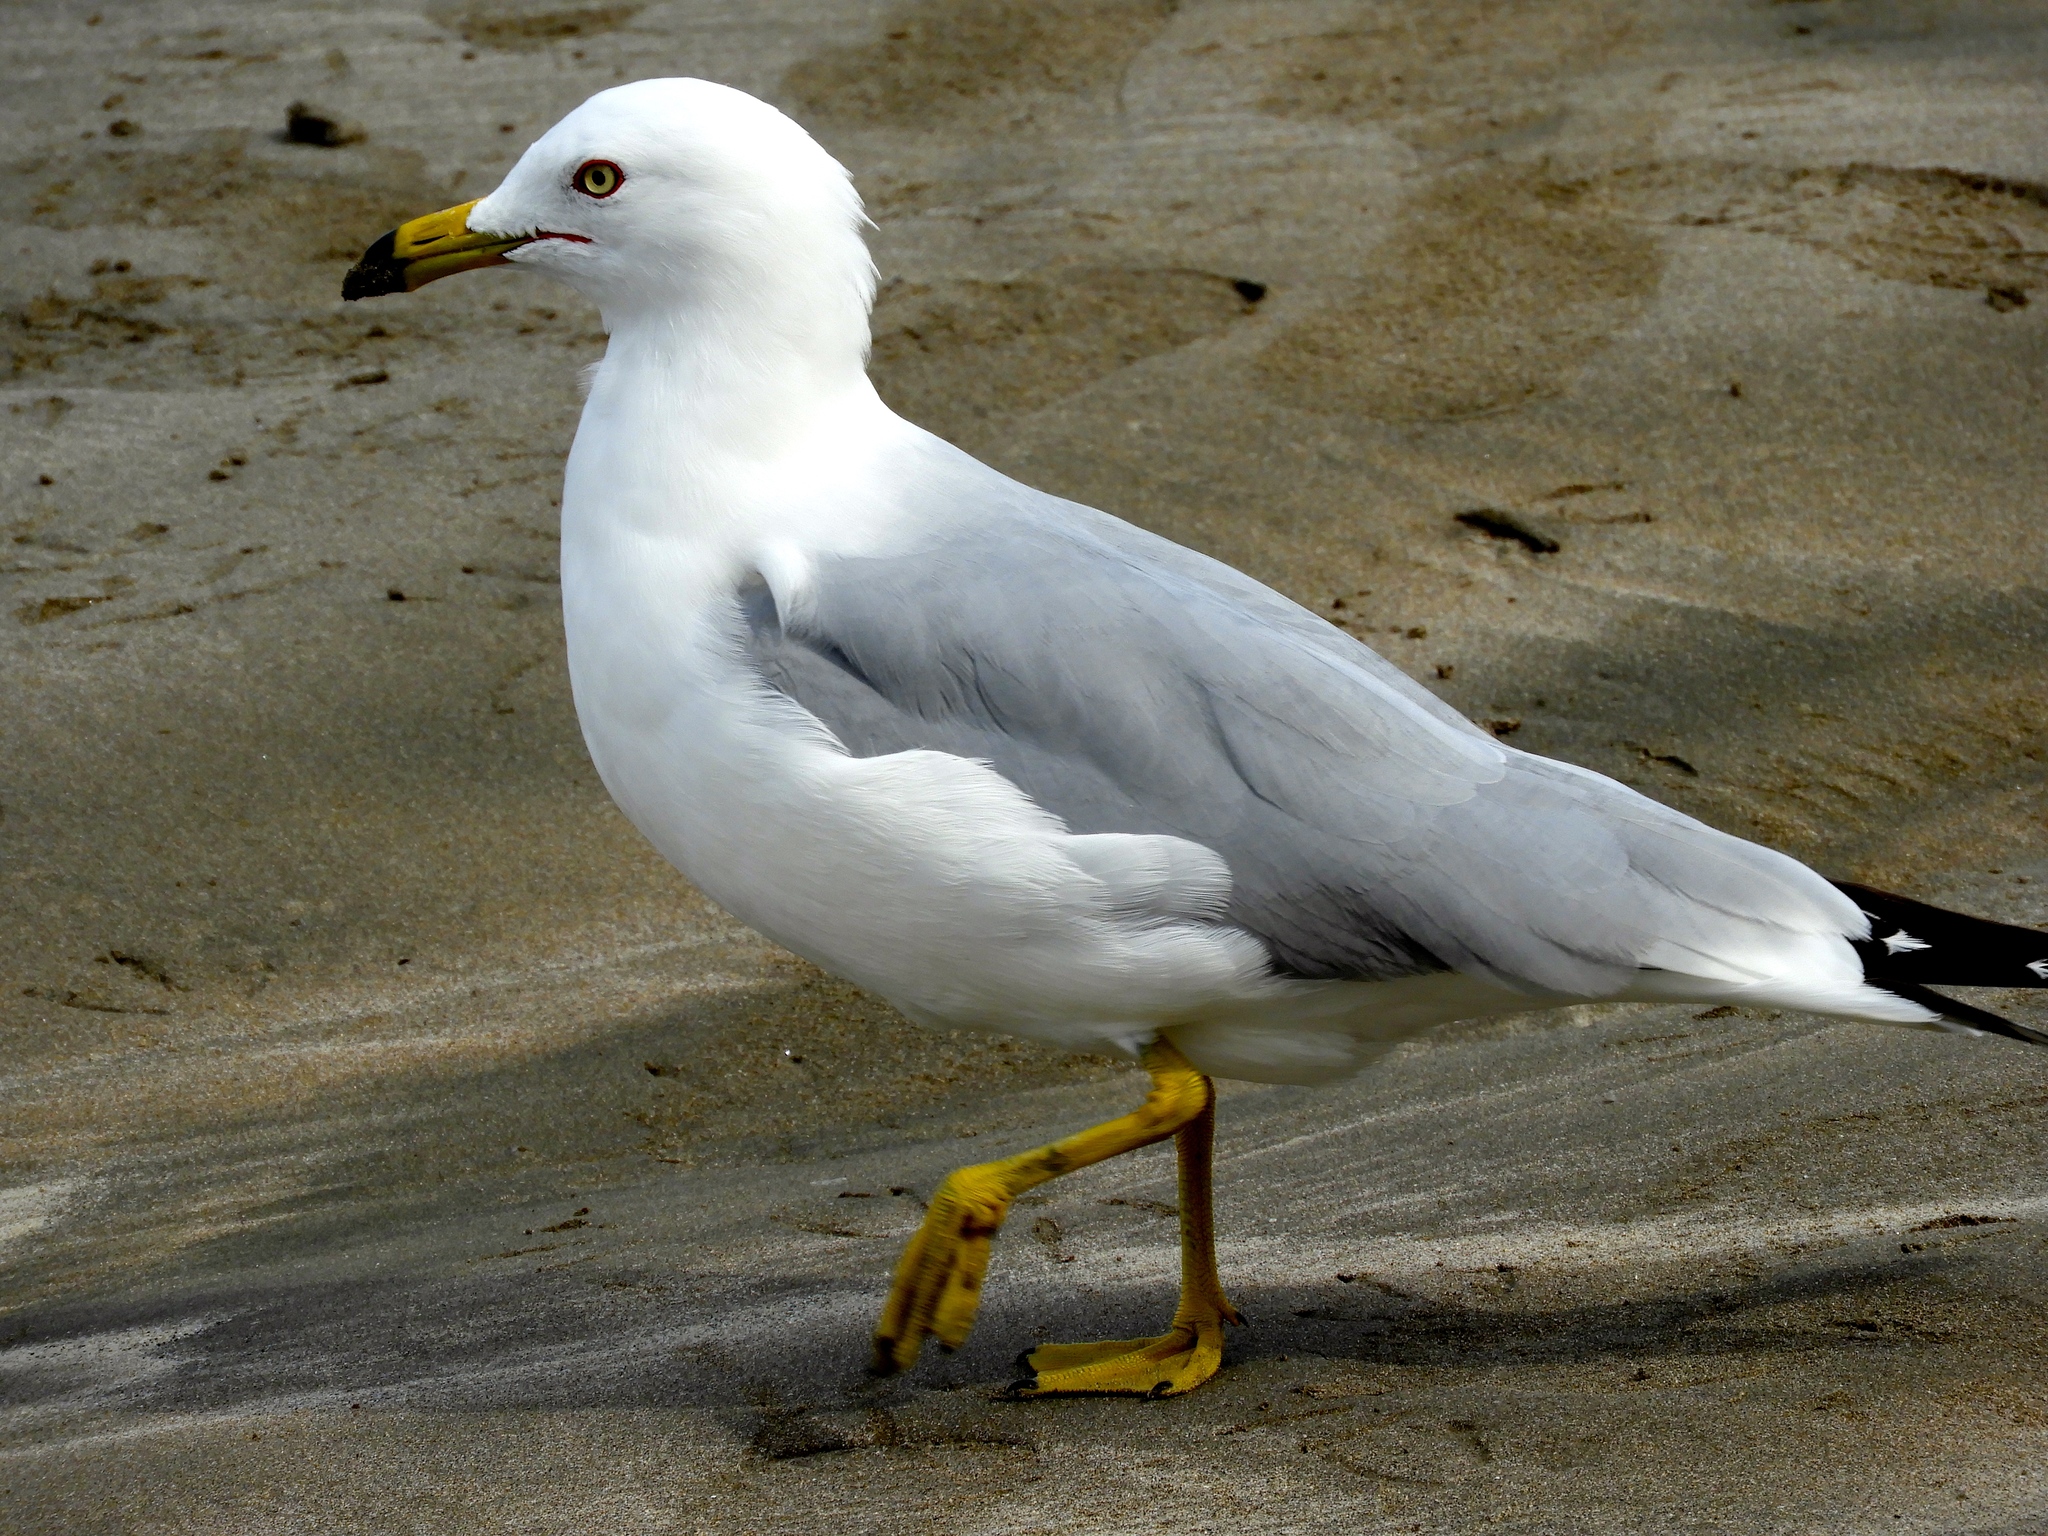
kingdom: Animalia
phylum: Chordata
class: Aves
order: Charadriiformes
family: Laridae
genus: Larus
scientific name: Larus delawarensis
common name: Ring-billed gull
